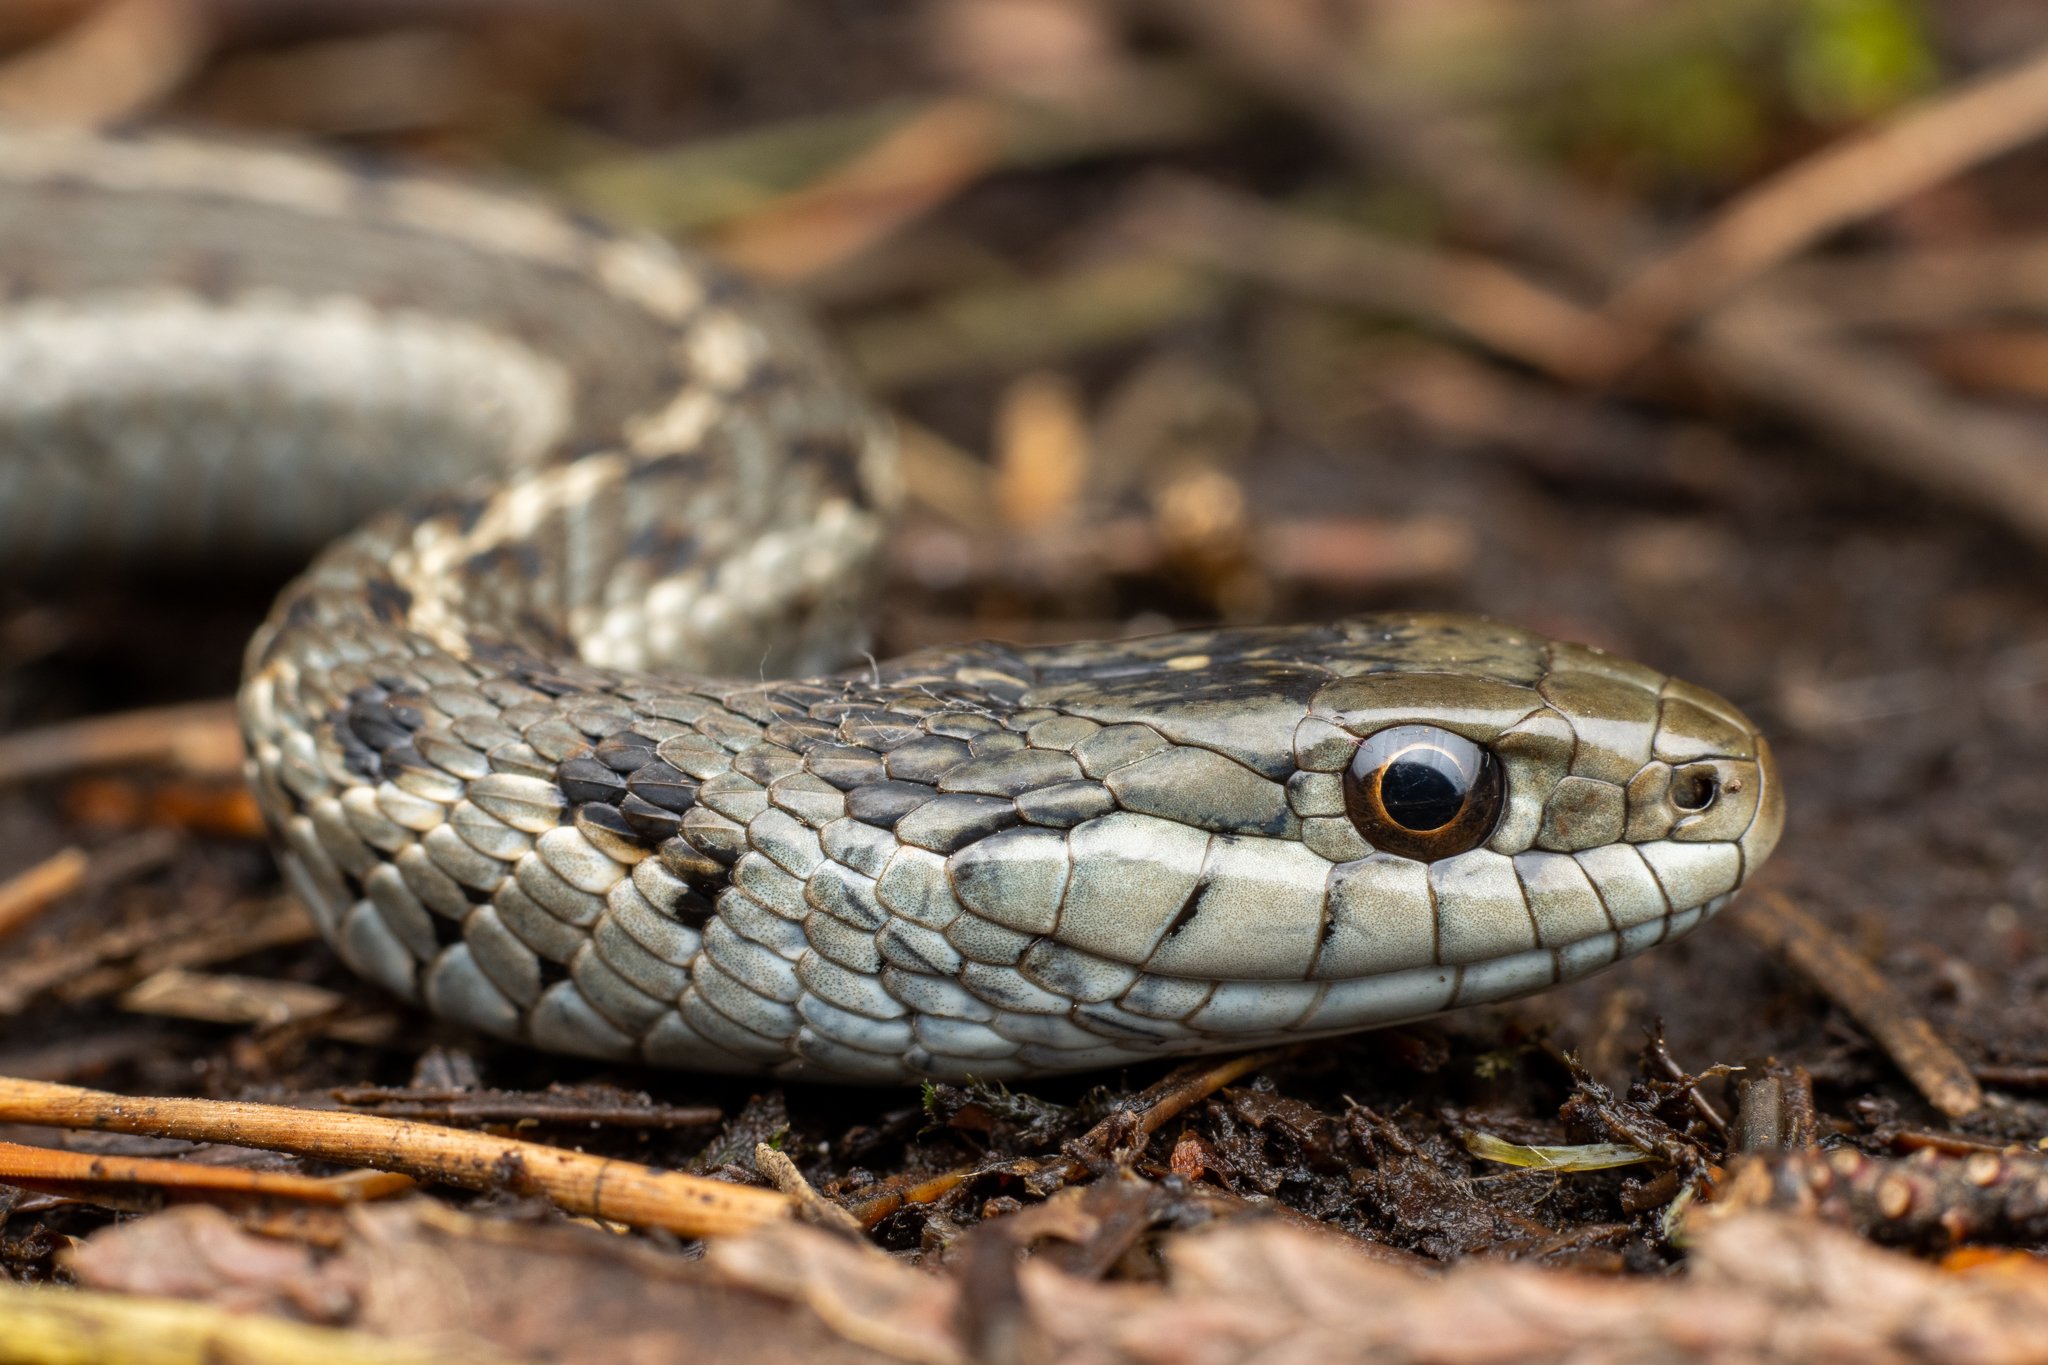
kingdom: Animalia
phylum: Chordata
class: Squamata
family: Colubridae
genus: Thamnophis
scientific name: Thamnophis elegans
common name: Western terrestrial garter snake
